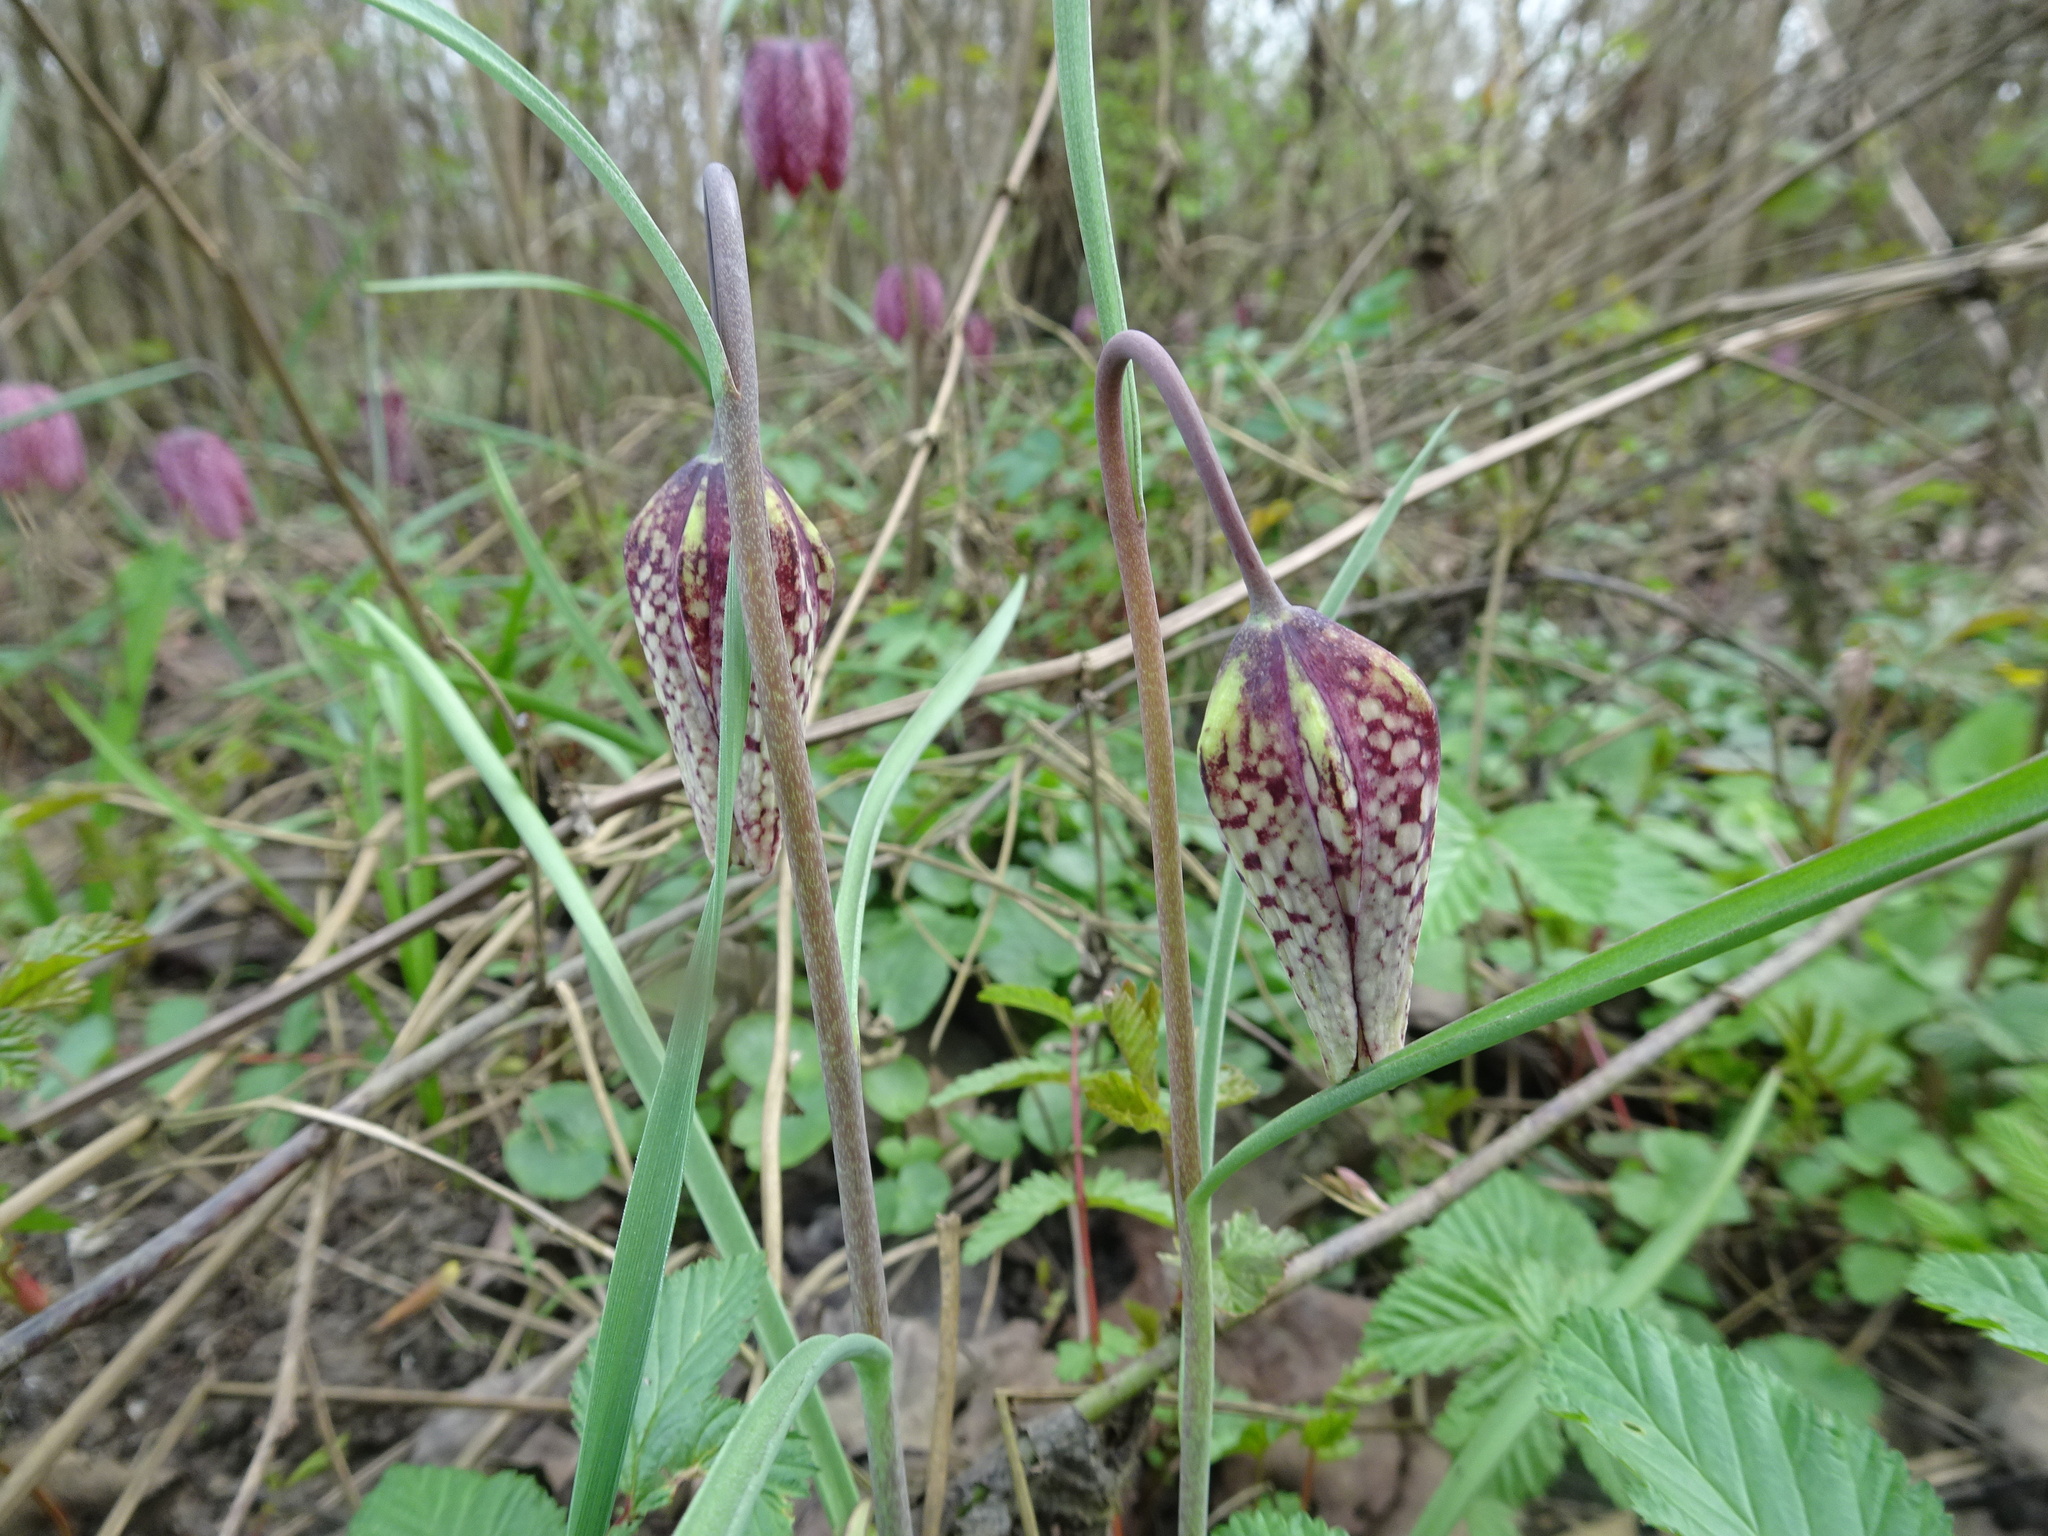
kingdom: Plantae
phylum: Tracheophyta
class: Liliopsida
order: Liliales
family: Liliaceae
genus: Fritillaria
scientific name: Fritillaria meleagris
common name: Fritillary
